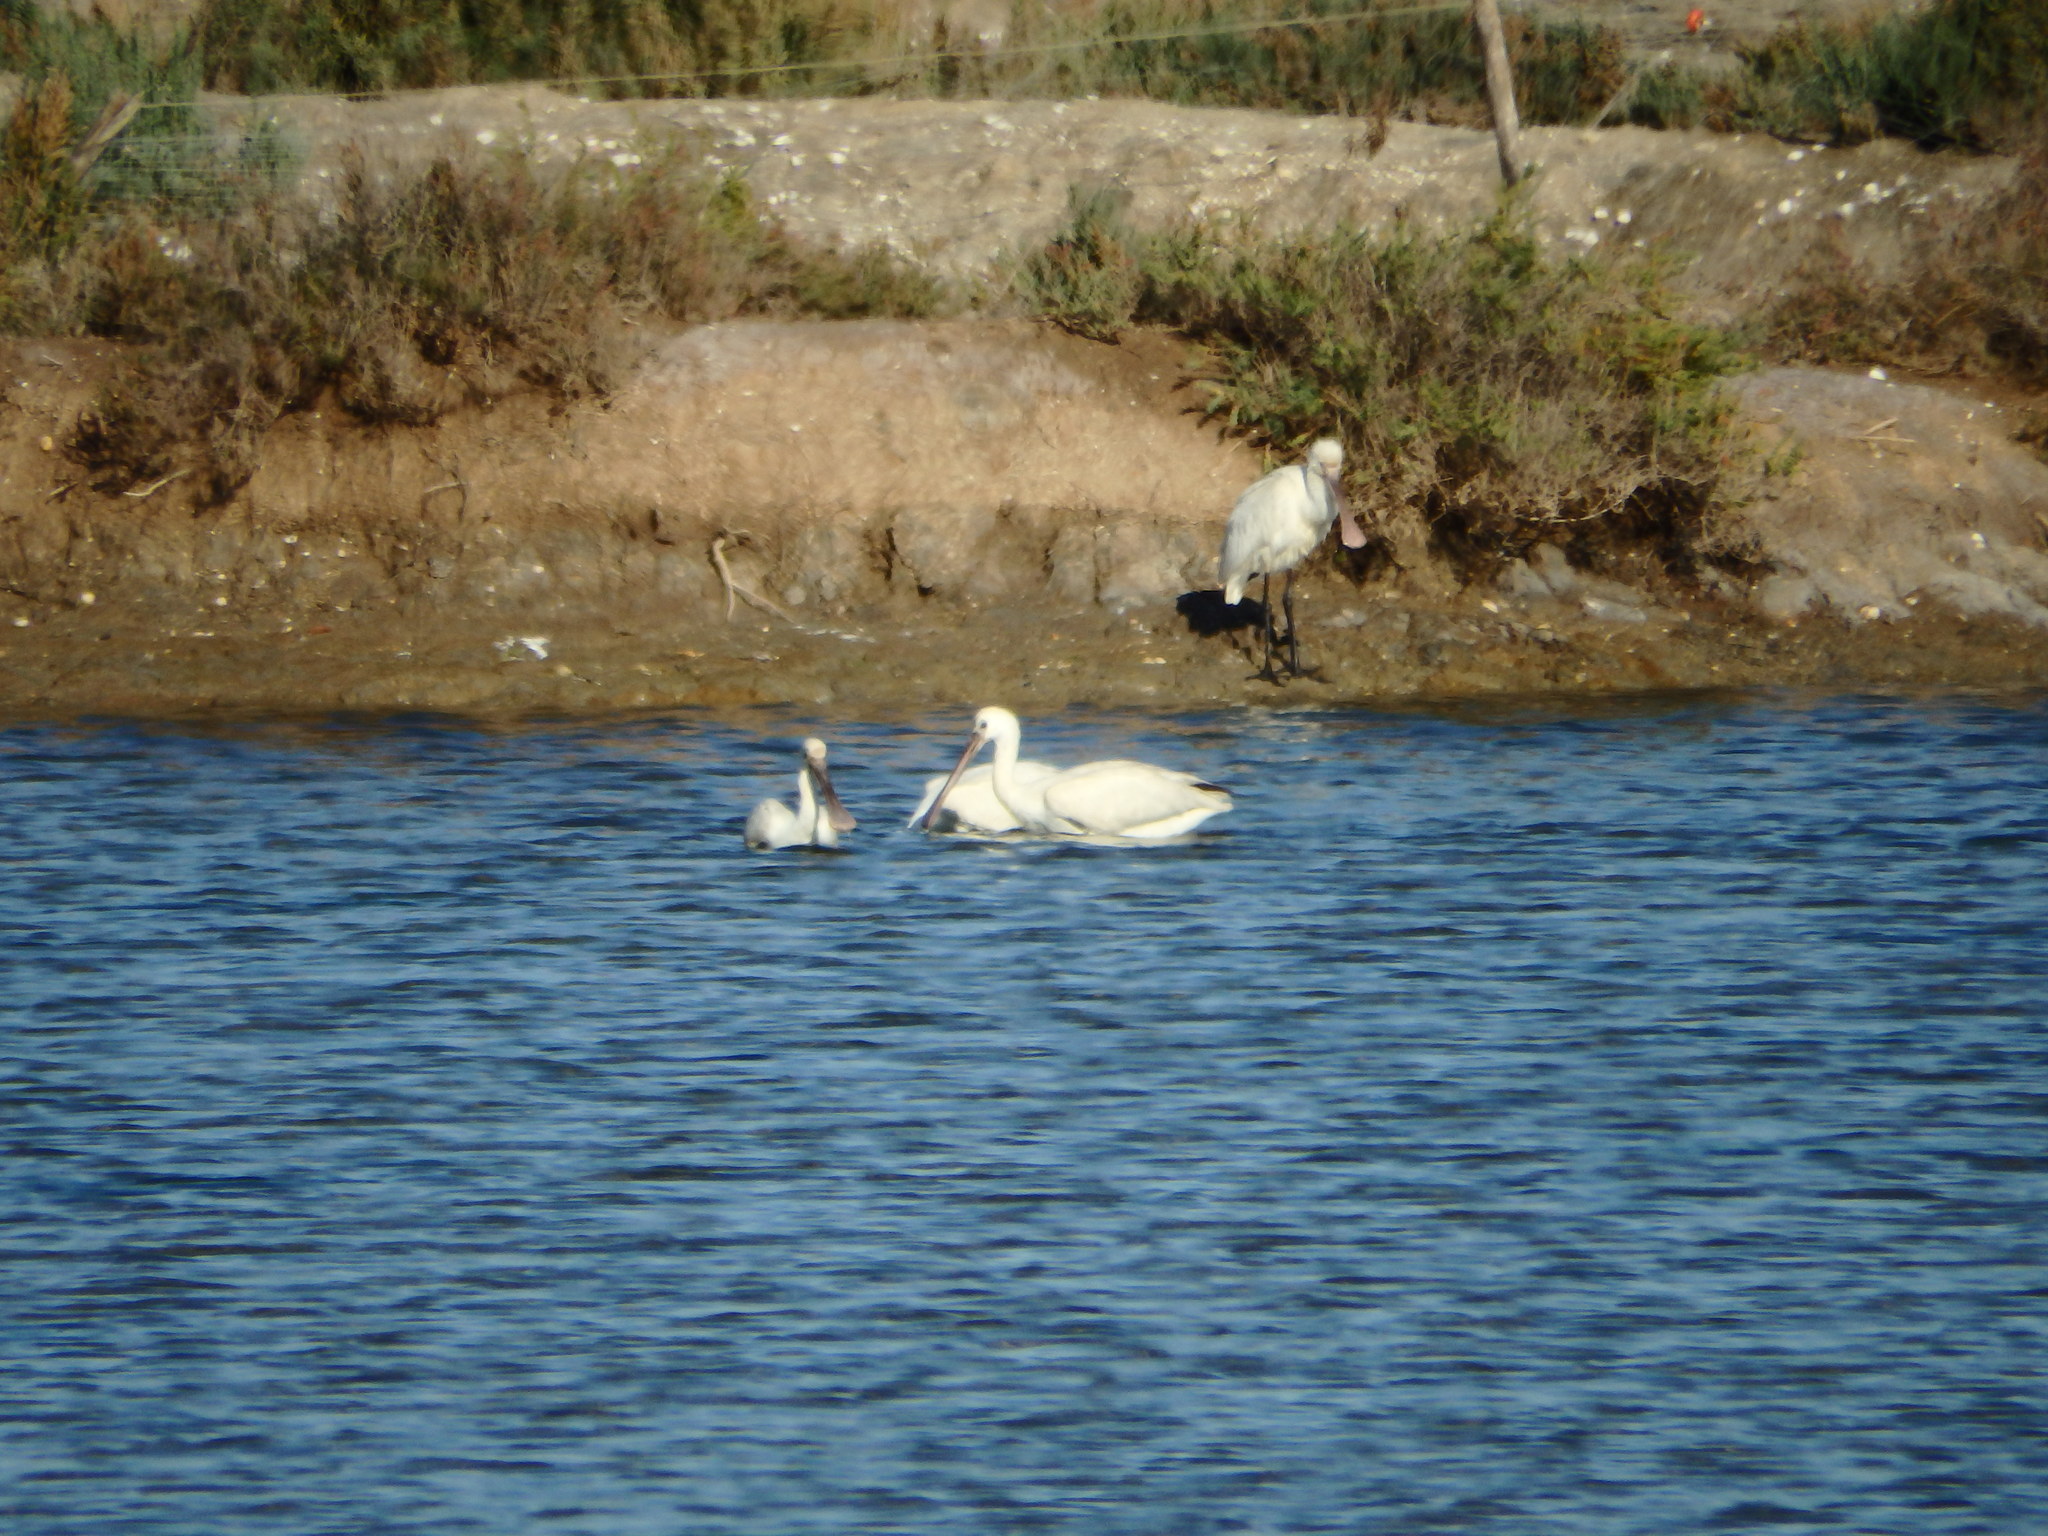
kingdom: Animalia
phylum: Chordata
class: Aves
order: Pelecaniformes
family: Threskiornithidae
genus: Platalea
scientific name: Platalea leucorodia
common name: Eurasian spoonbill
